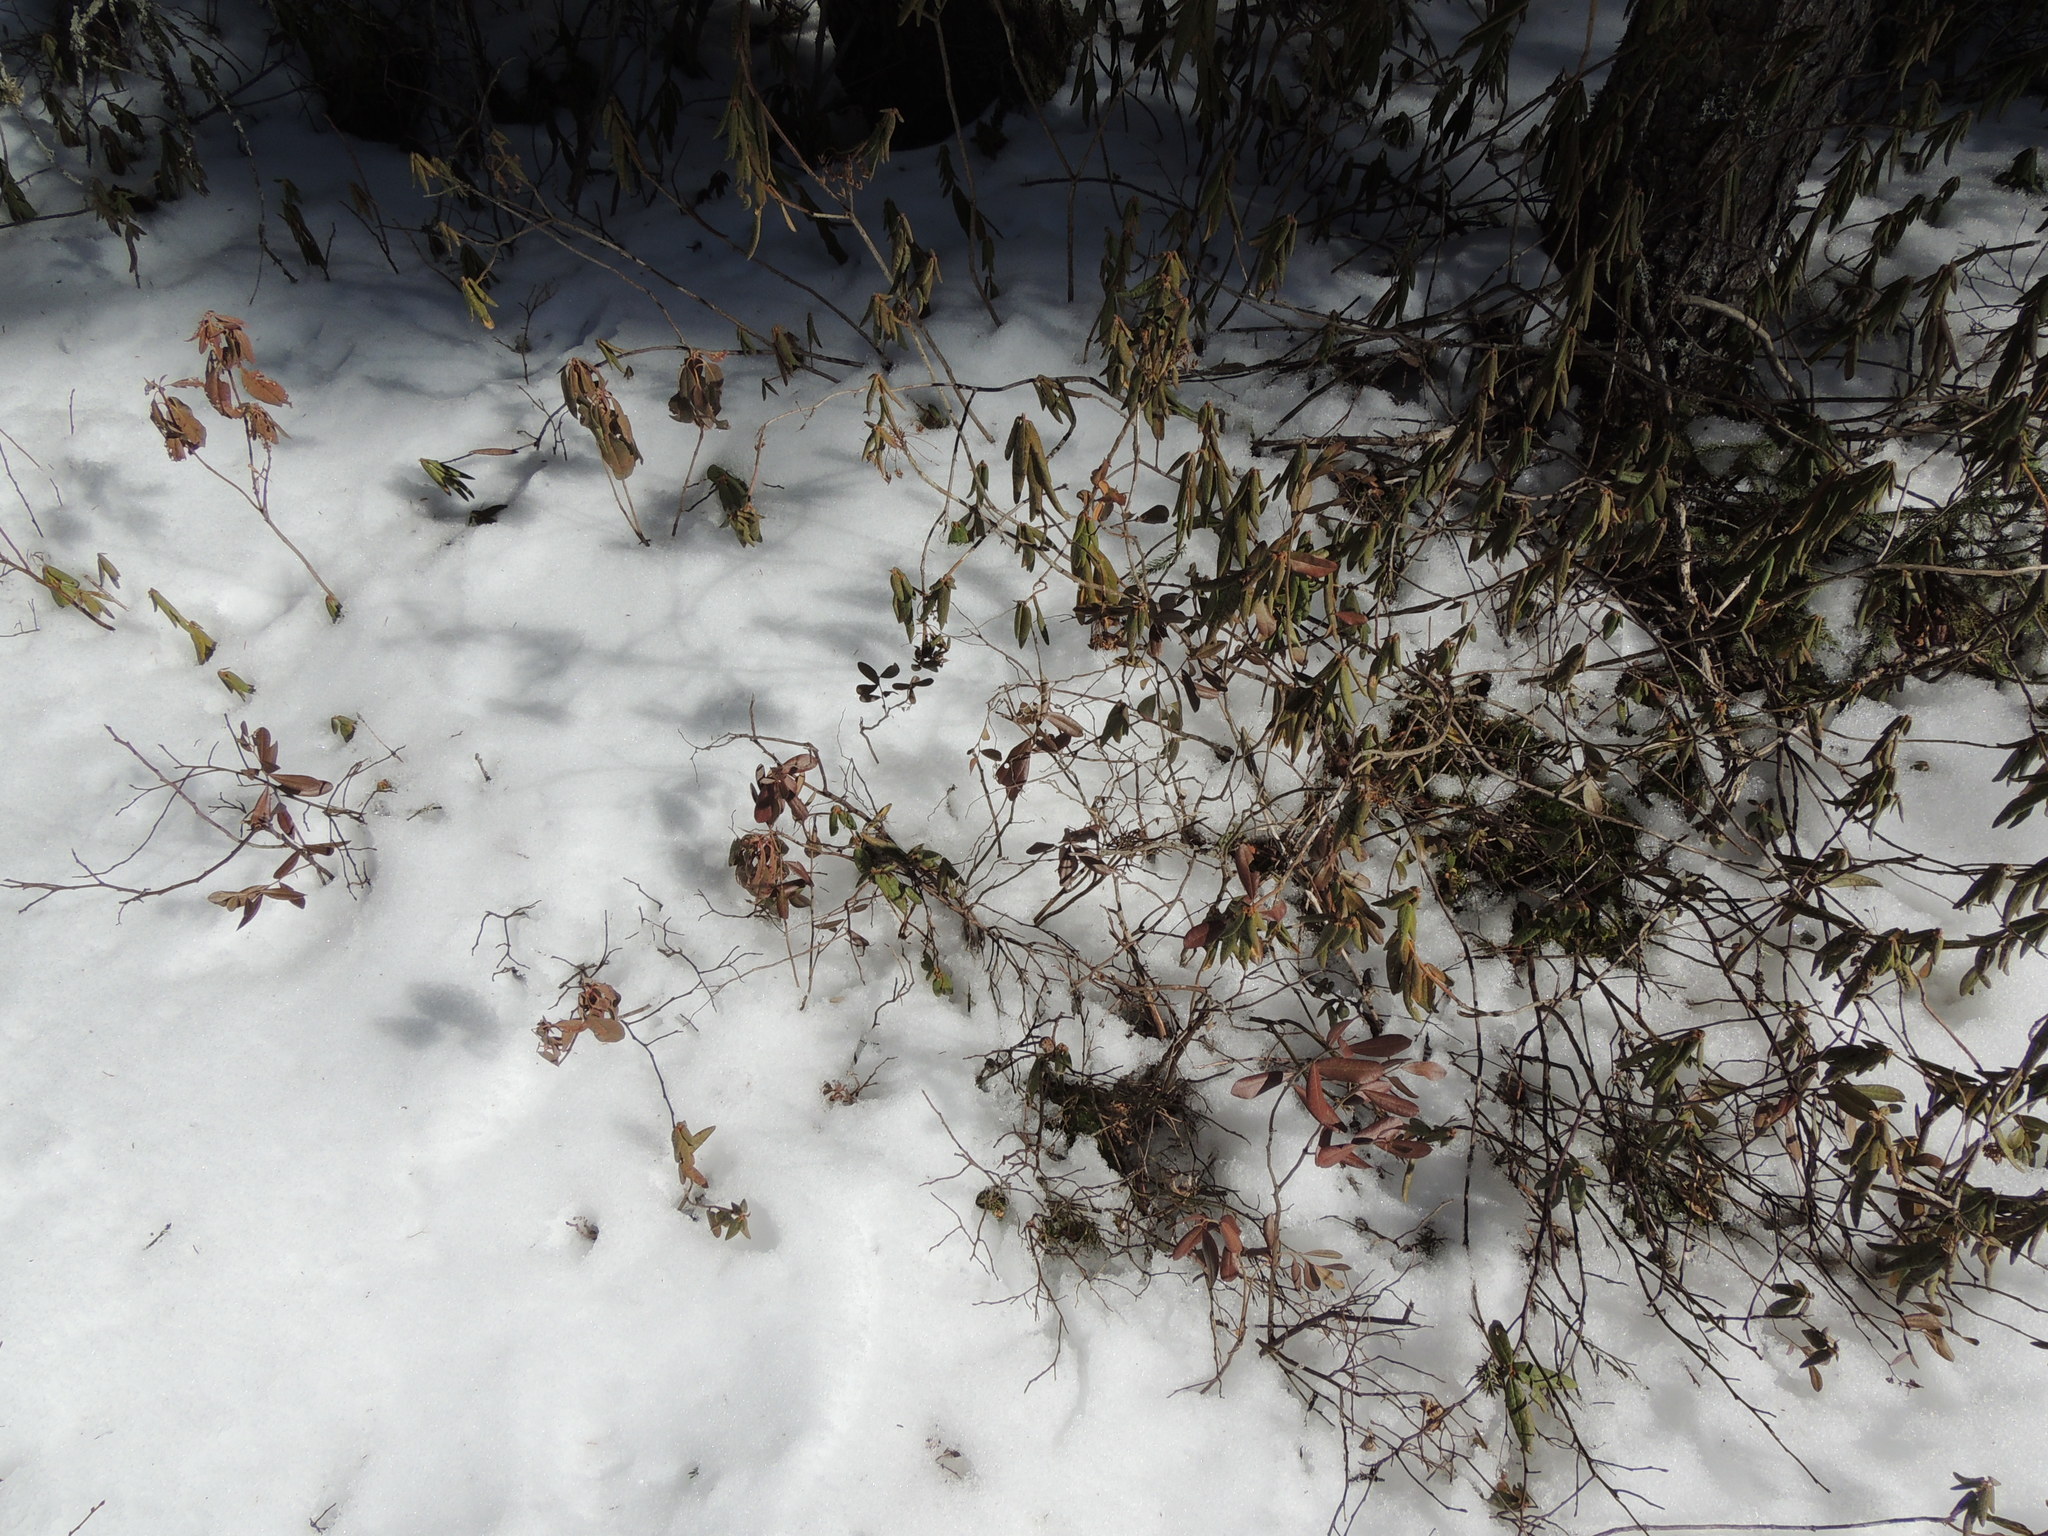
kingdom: Plantae
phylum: Tracheophyta
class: Magnoliopsida
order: Ericales
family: Ericaceae
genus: Rhododendron
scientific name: Rhododendron groenlandicum
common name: Bog labrador tea
